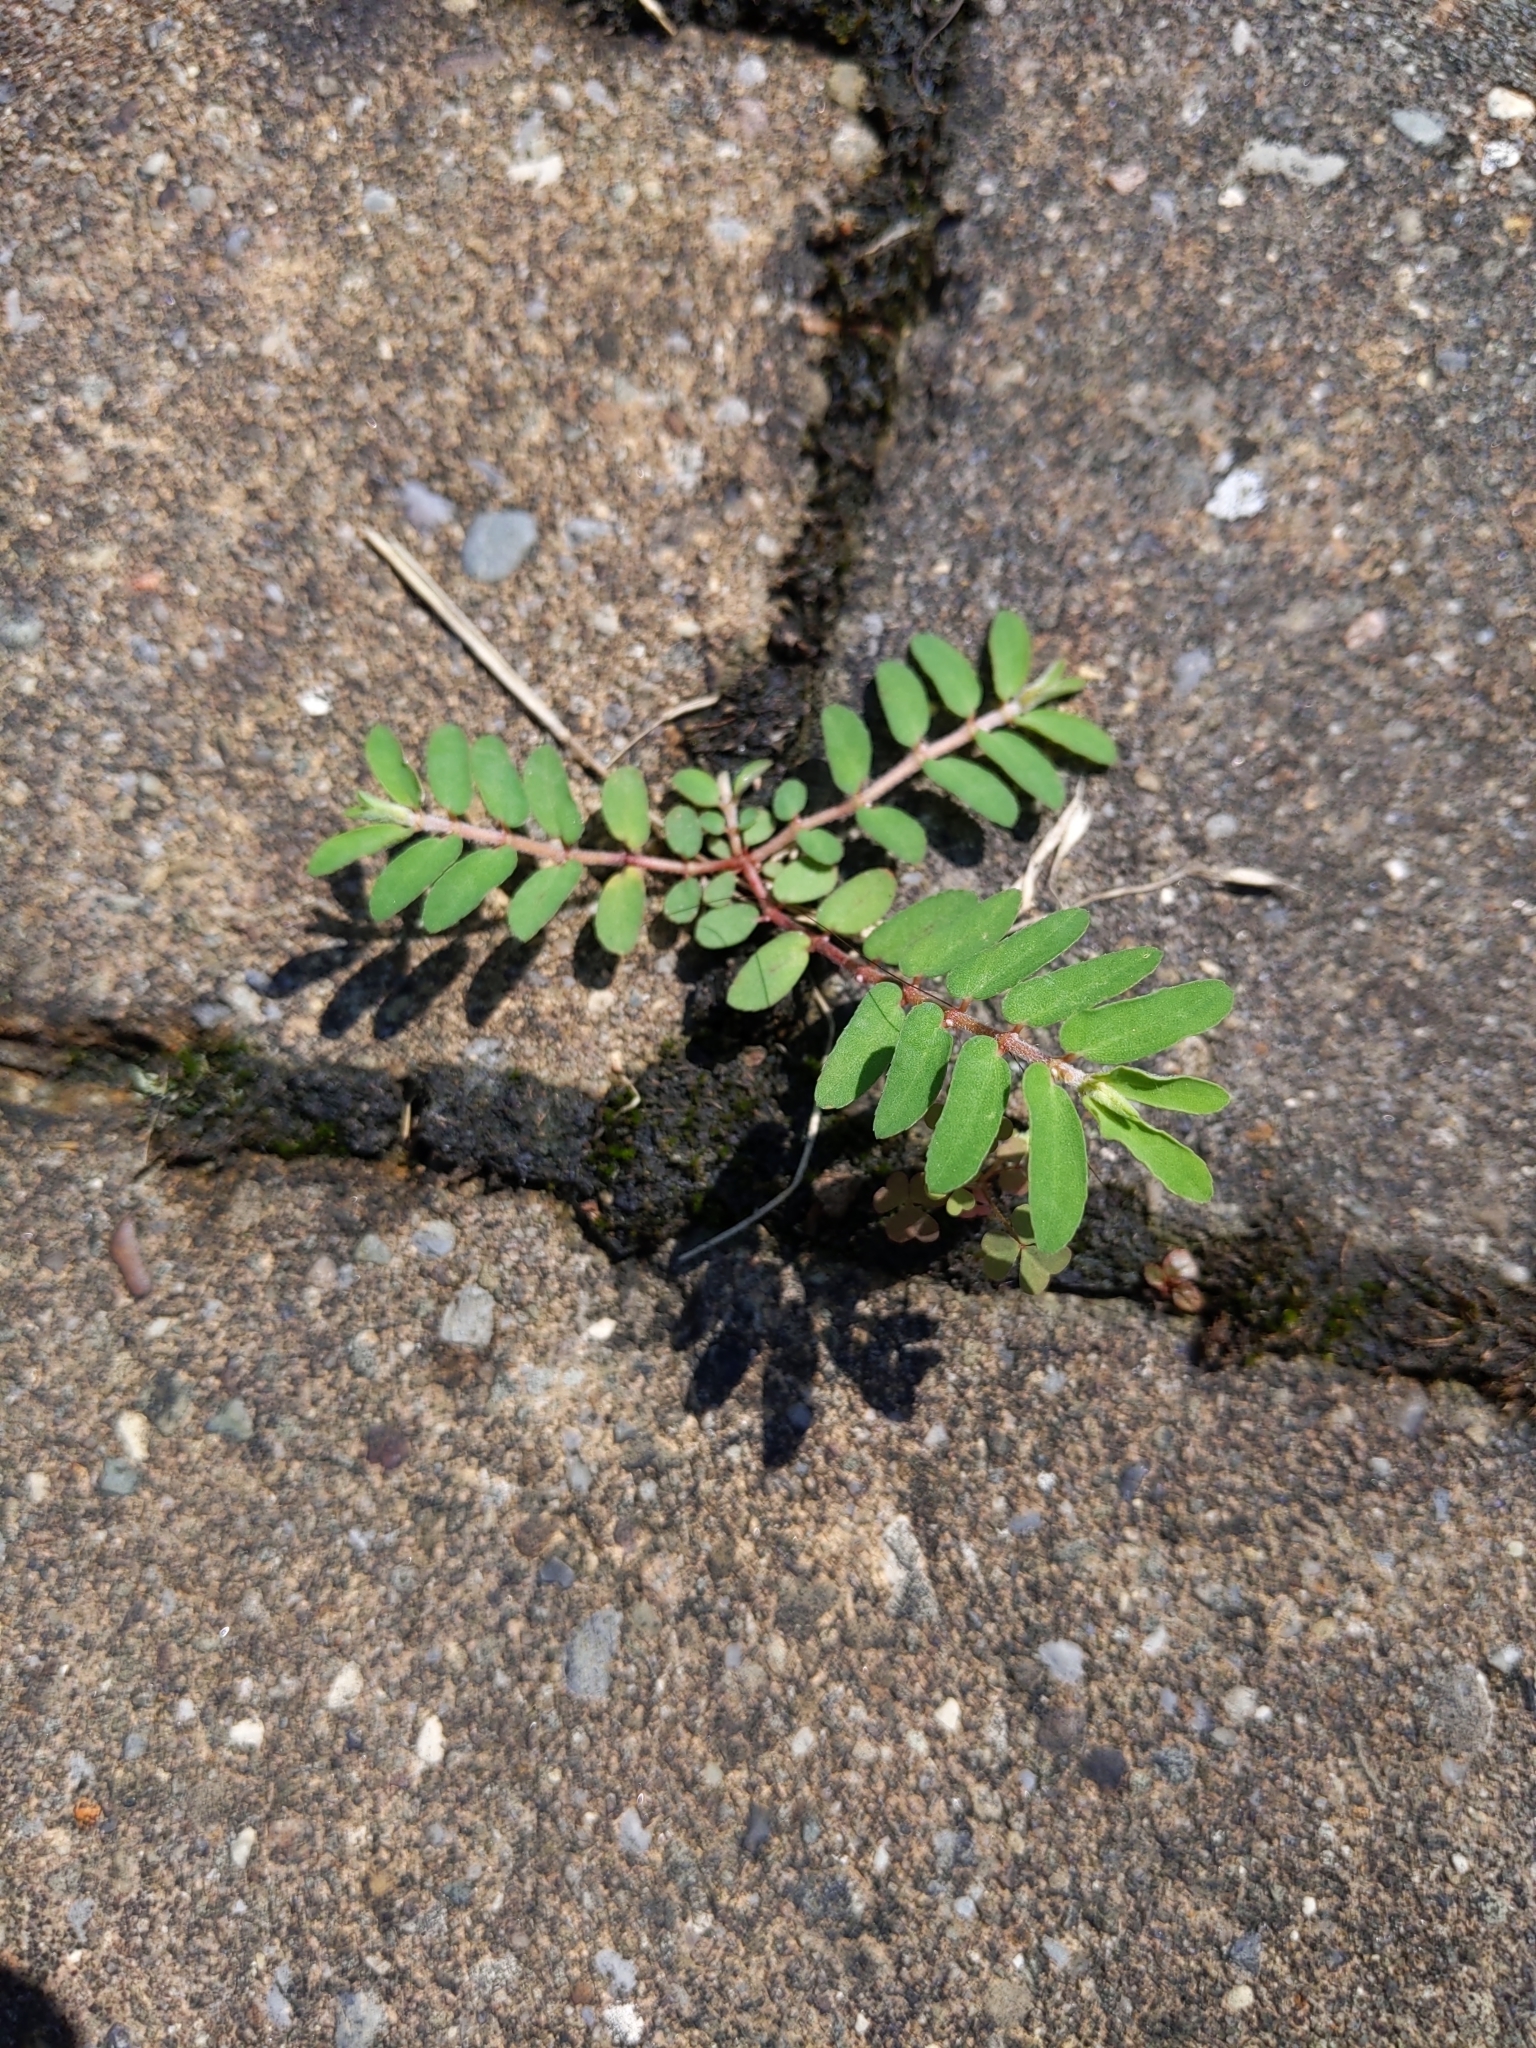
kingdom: Plantae
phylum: Tracheophyta
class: Magnoliopsida
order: Malpighiales
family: Euphorbiaceae
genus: Euphorbia
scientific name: Euphorbia maculata
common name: Spotted spurge
